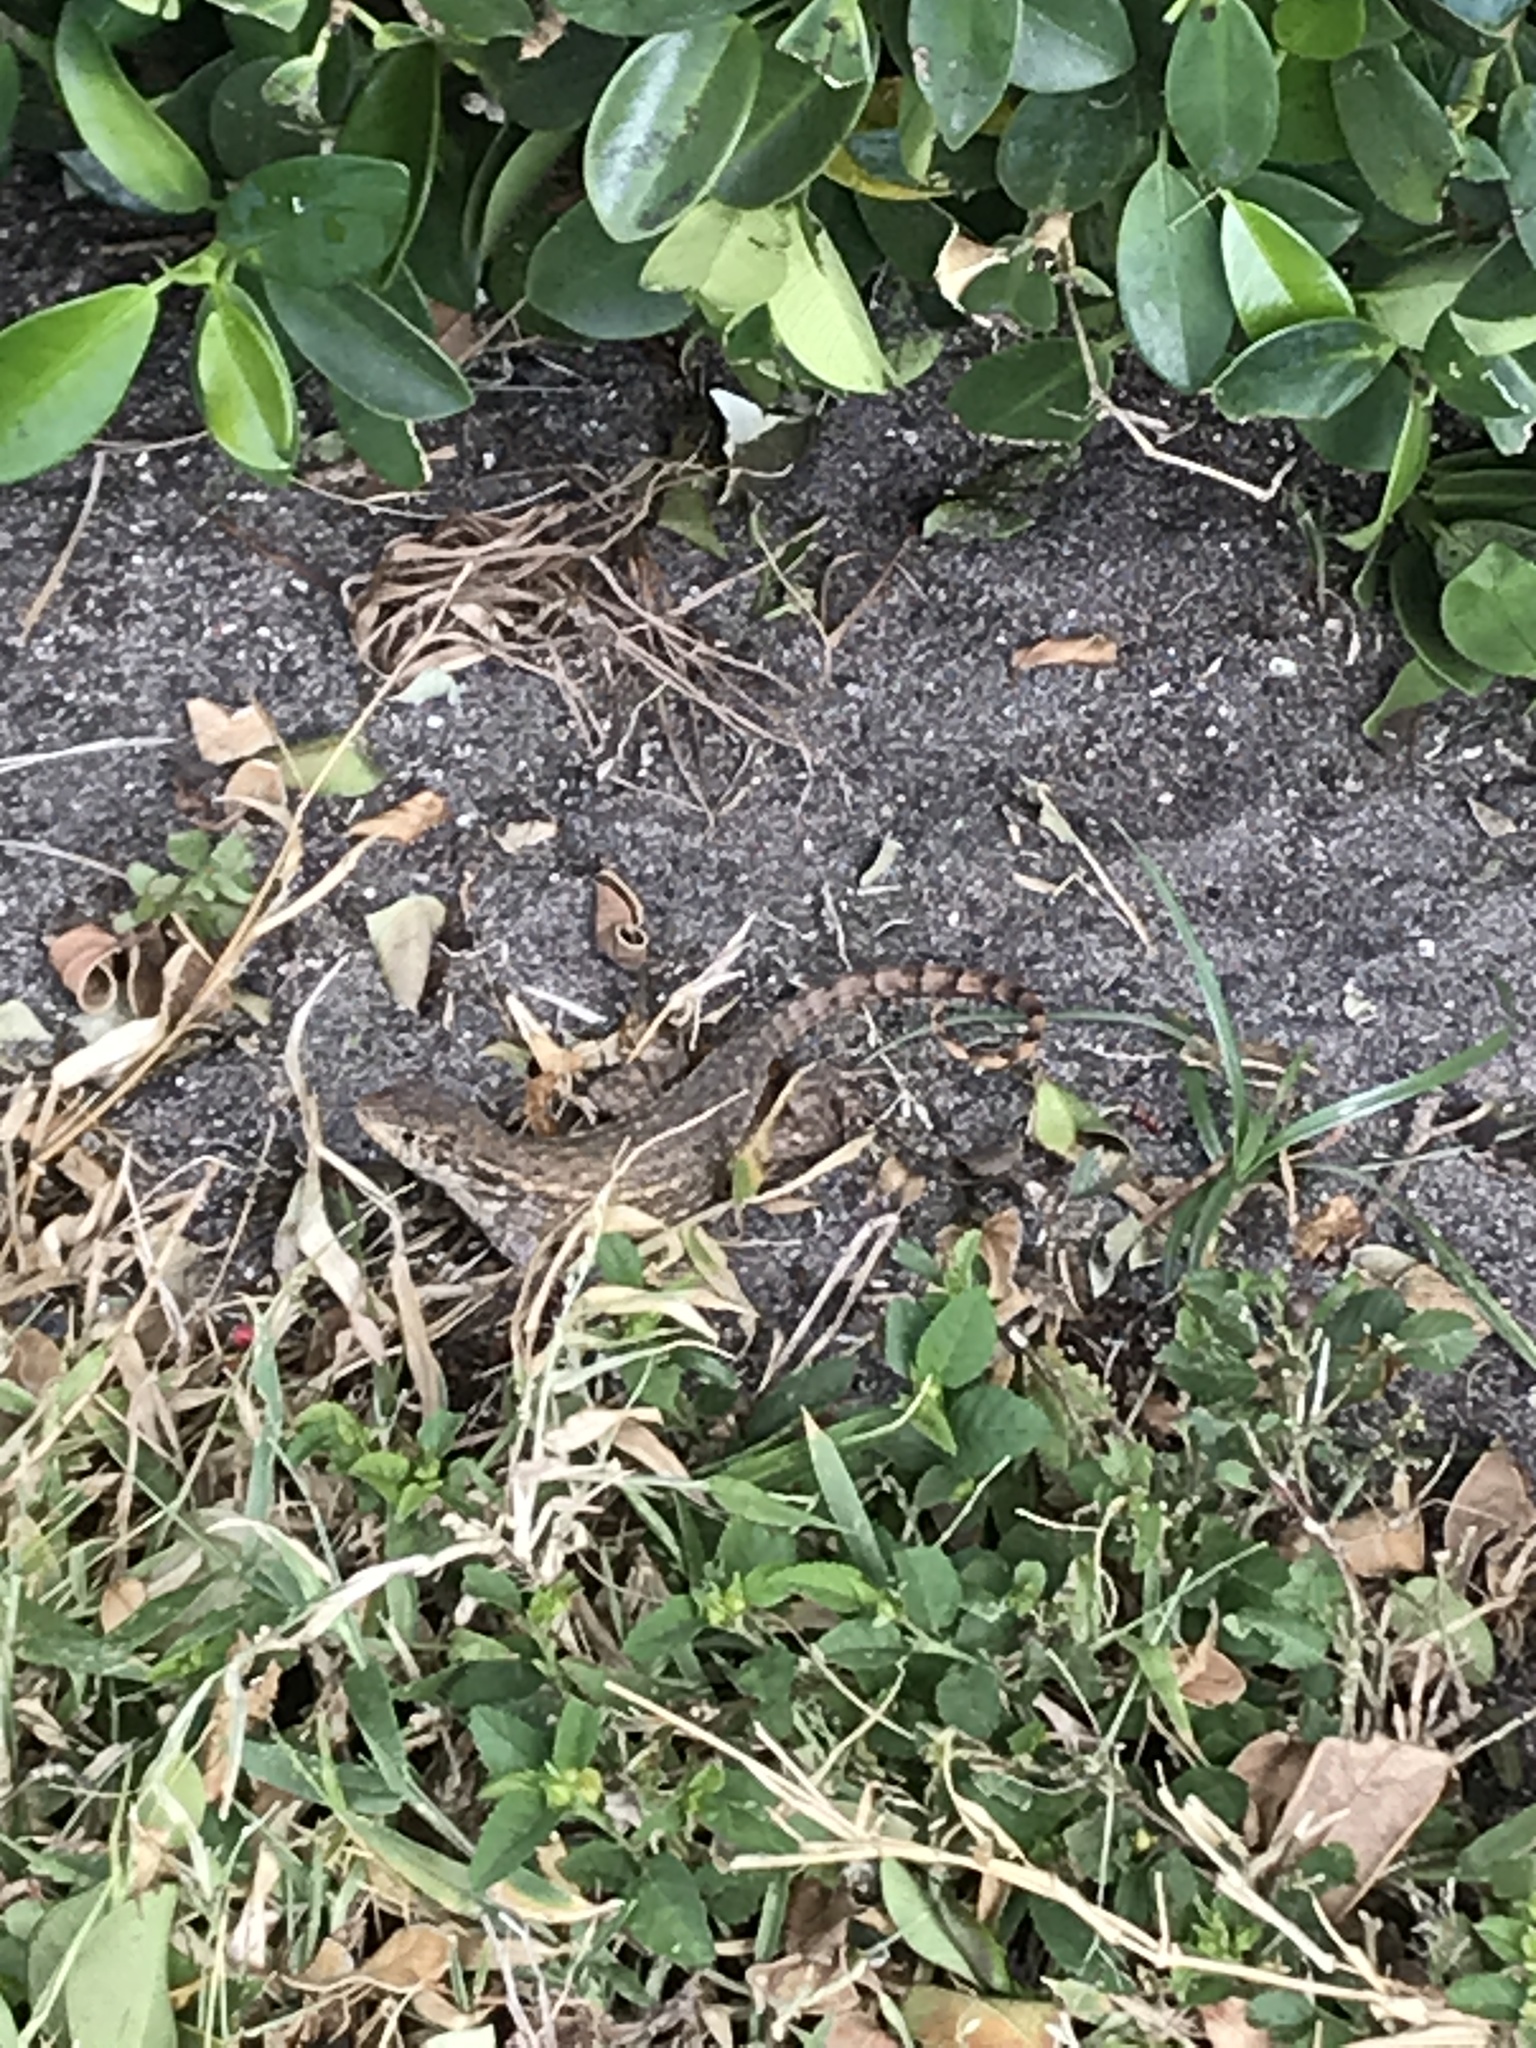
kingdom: Animalia
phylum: Chordata
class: Squamata
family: Leiocephalidae
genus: Leiocephalus
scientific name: Leiocephalus carinatus
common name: Northern curly-tailed lizard
